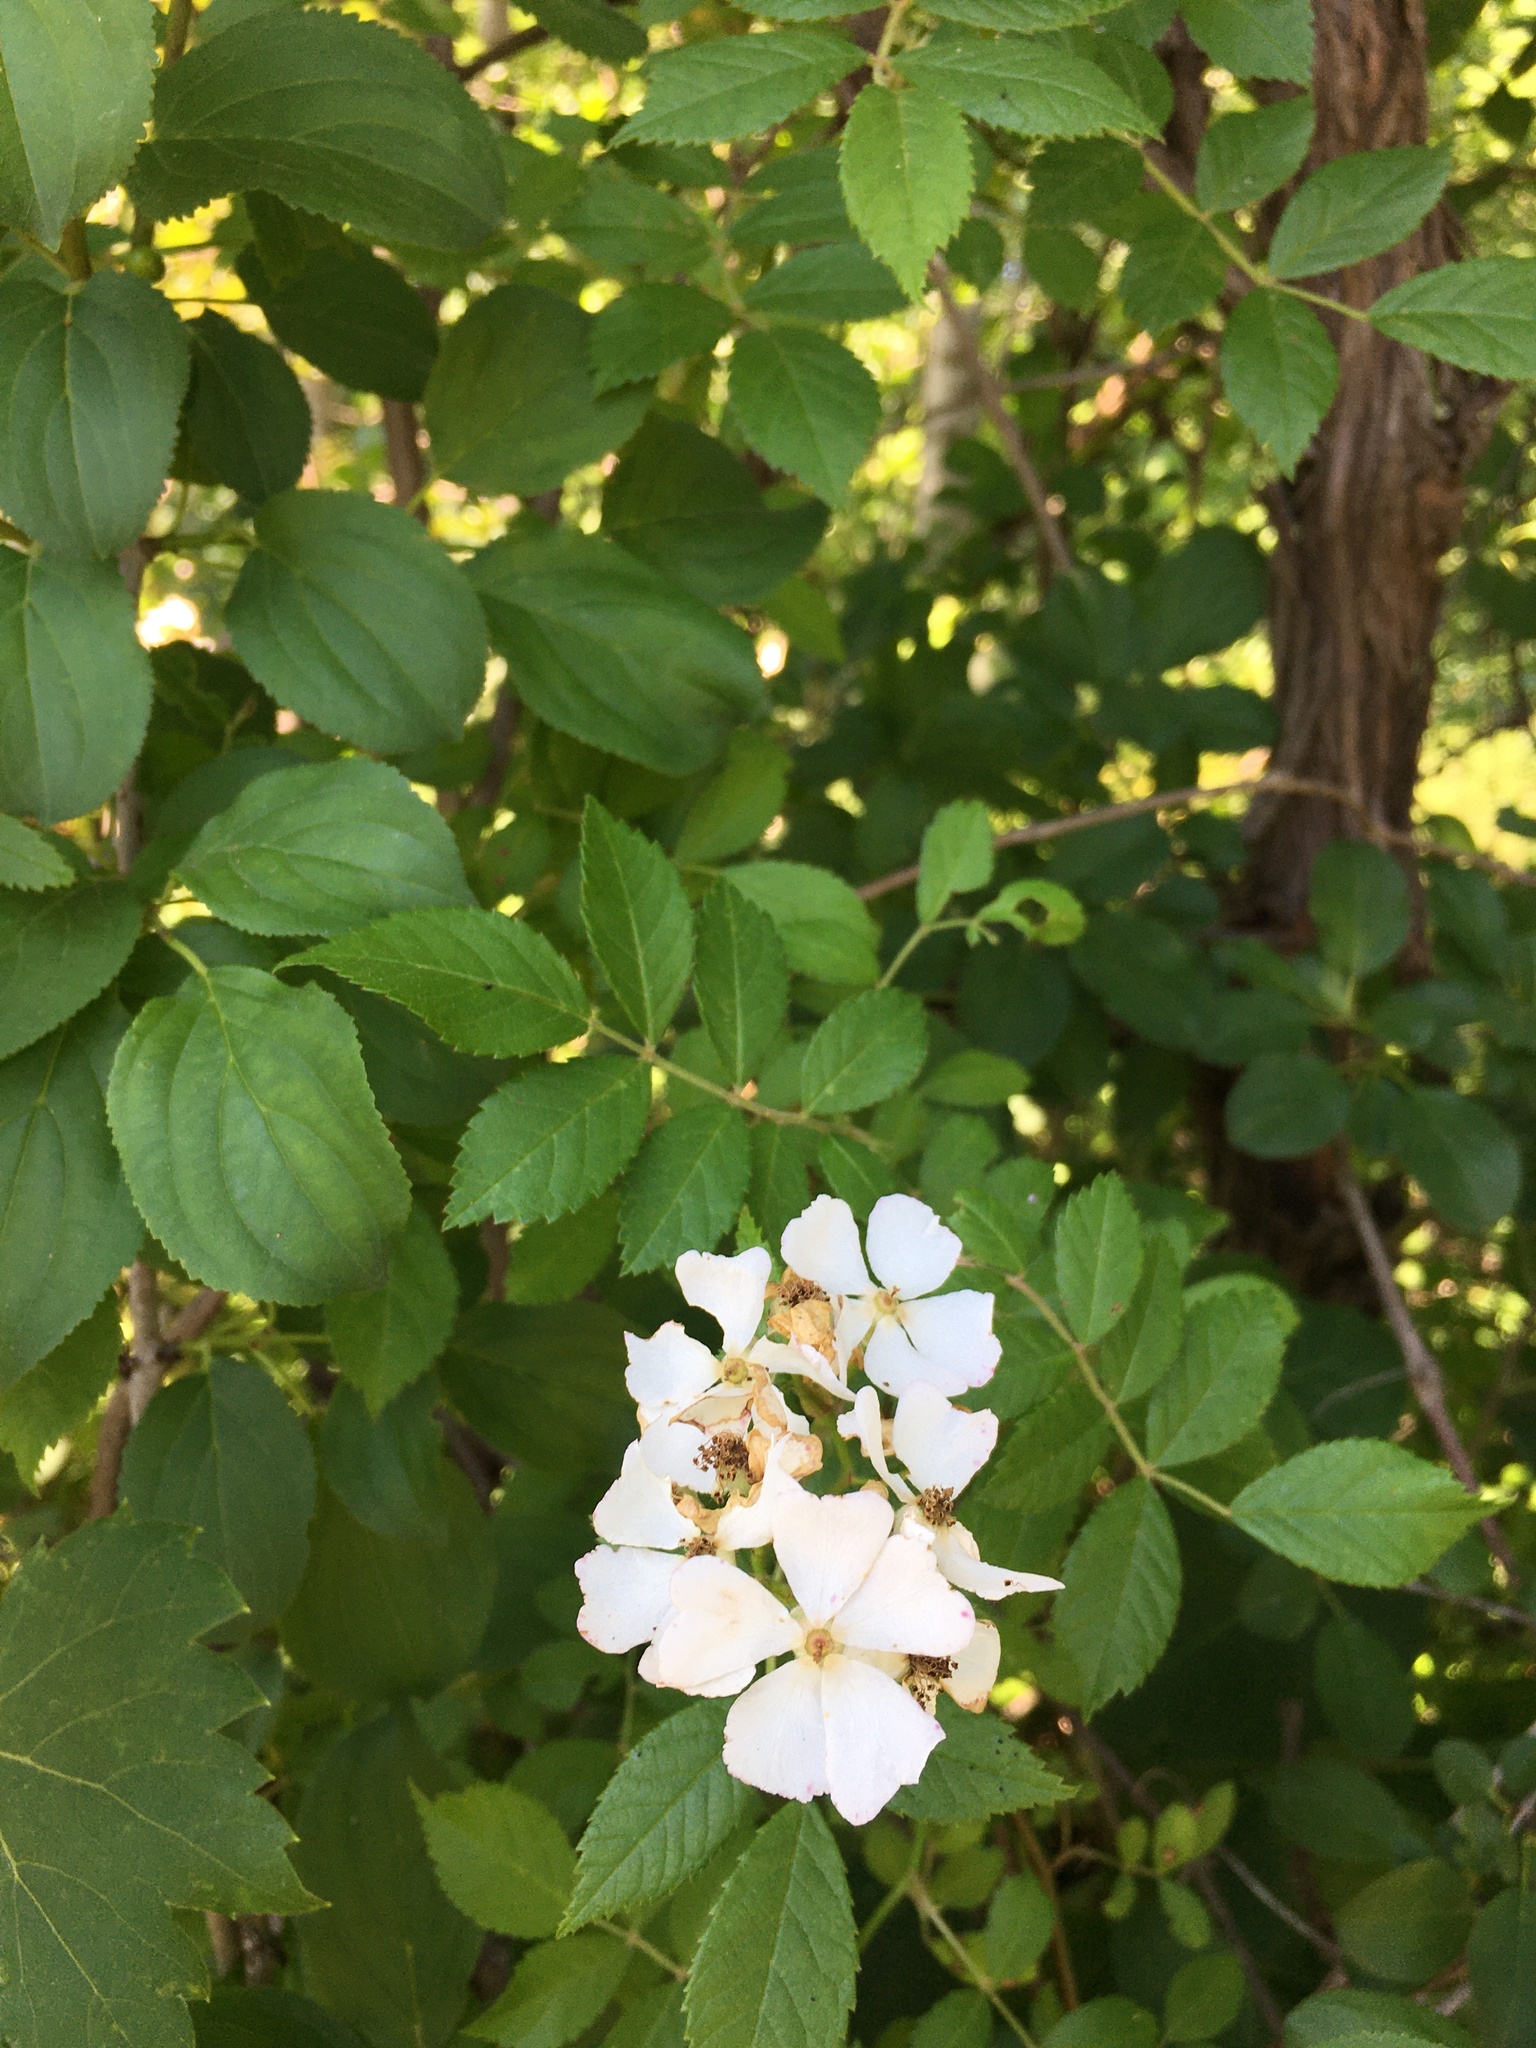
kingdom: Plantae
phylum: Tracheophyta
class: Magnoliopsida
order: Rosales
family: Rosaceae
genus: Rosa
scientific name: Rosa multiflora
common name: Multiflora rose
